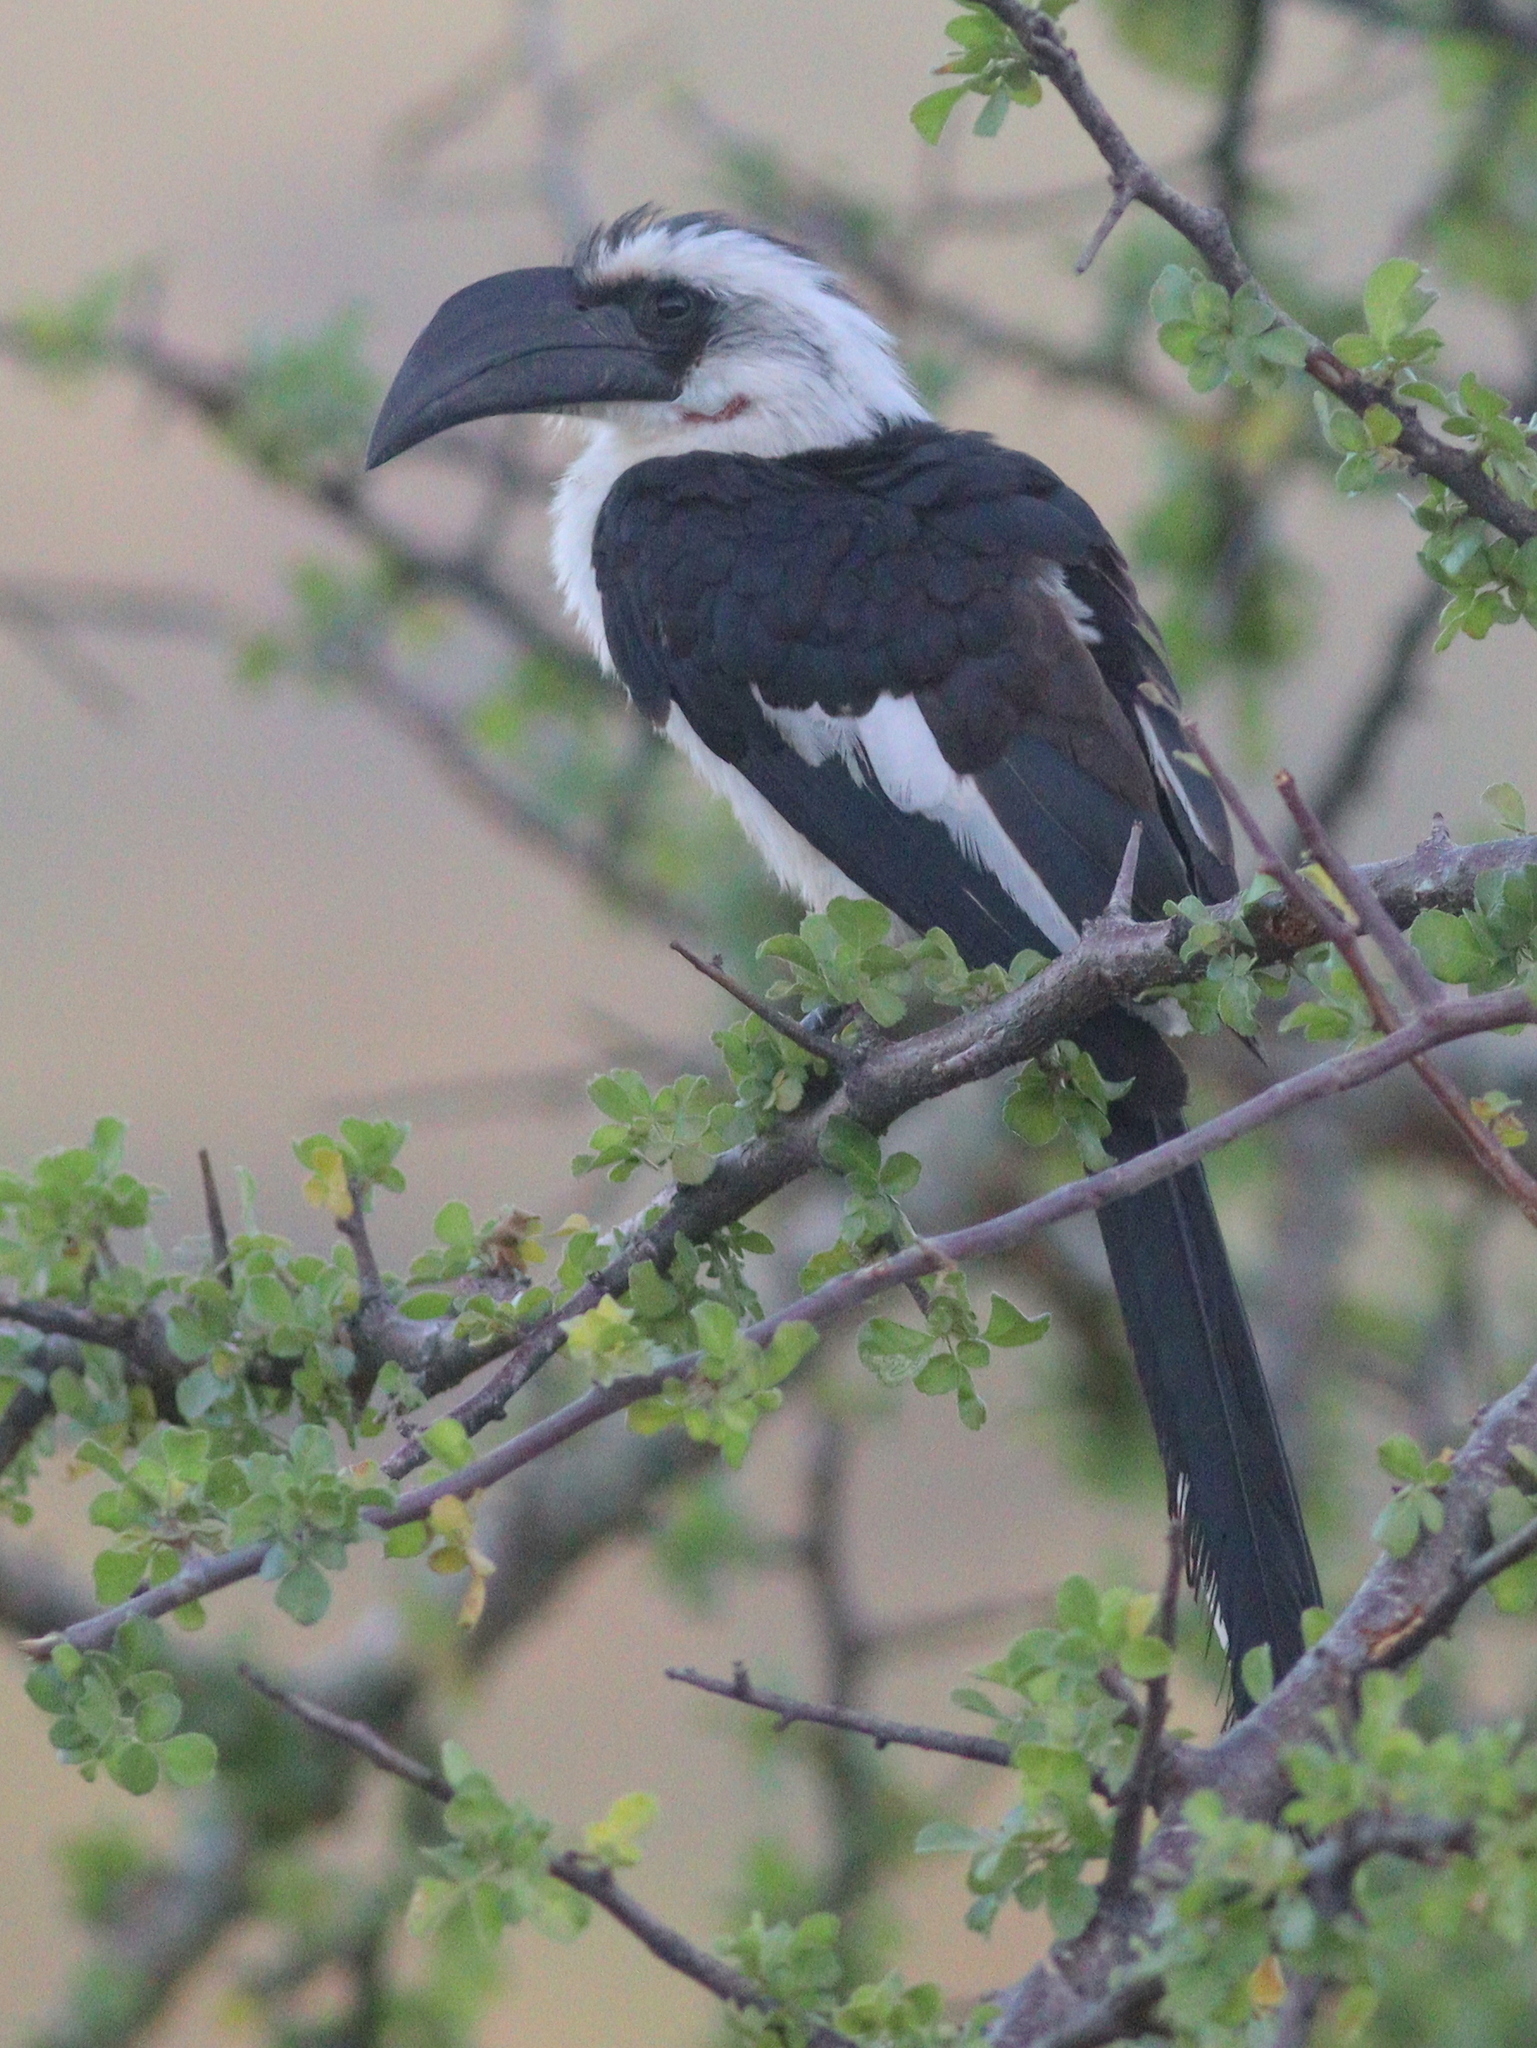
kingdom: Animalia
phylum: Chordata
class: Aves
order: Bucerotiformes
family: Bucerotidae
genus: Tockus
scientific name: Tockus deckeni
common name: Von der decken's hornbill
